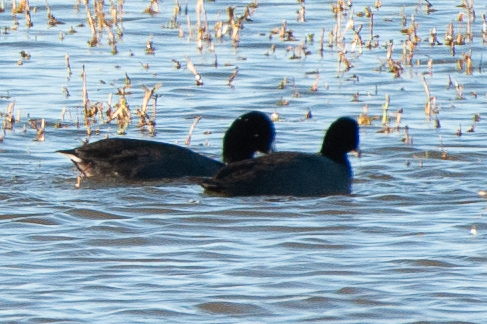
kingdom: Animalia
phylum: Chordata
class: Aves
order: Gruiformes
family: Rallidae
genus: Fulica
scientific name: Fulica americana
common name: American coot
